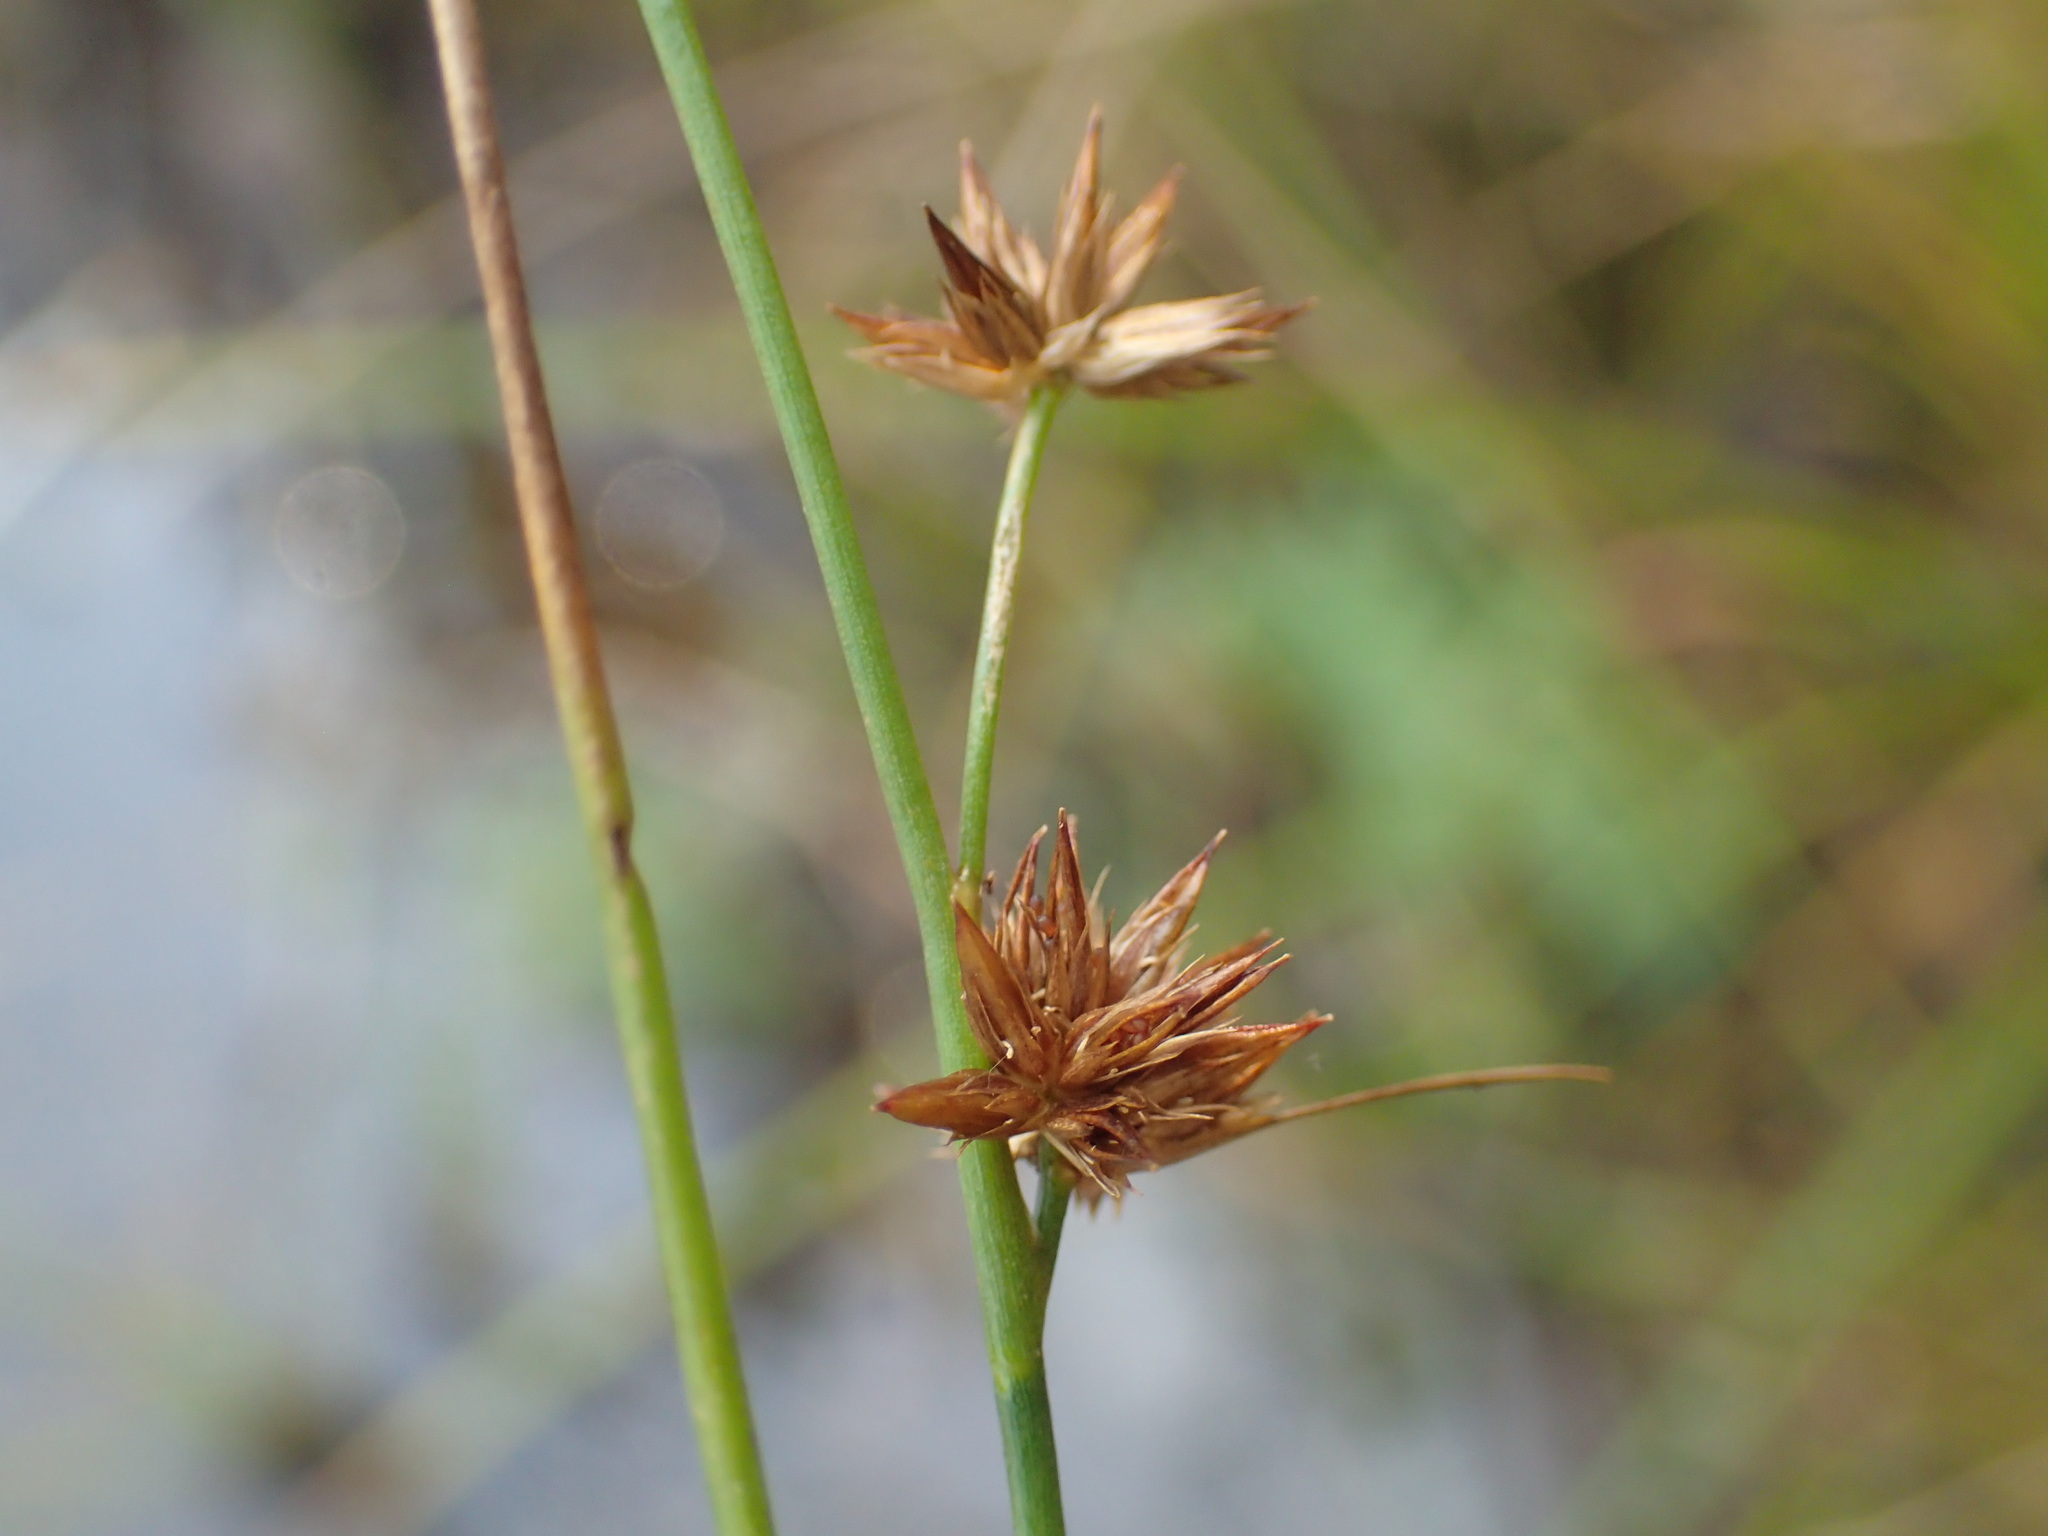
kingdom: Plantae
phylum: Tracheophyta
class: Liliopsida
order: Poales
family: Juncaceae
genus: Juncus
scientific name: Juncus nodosus
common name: Knotted rush
